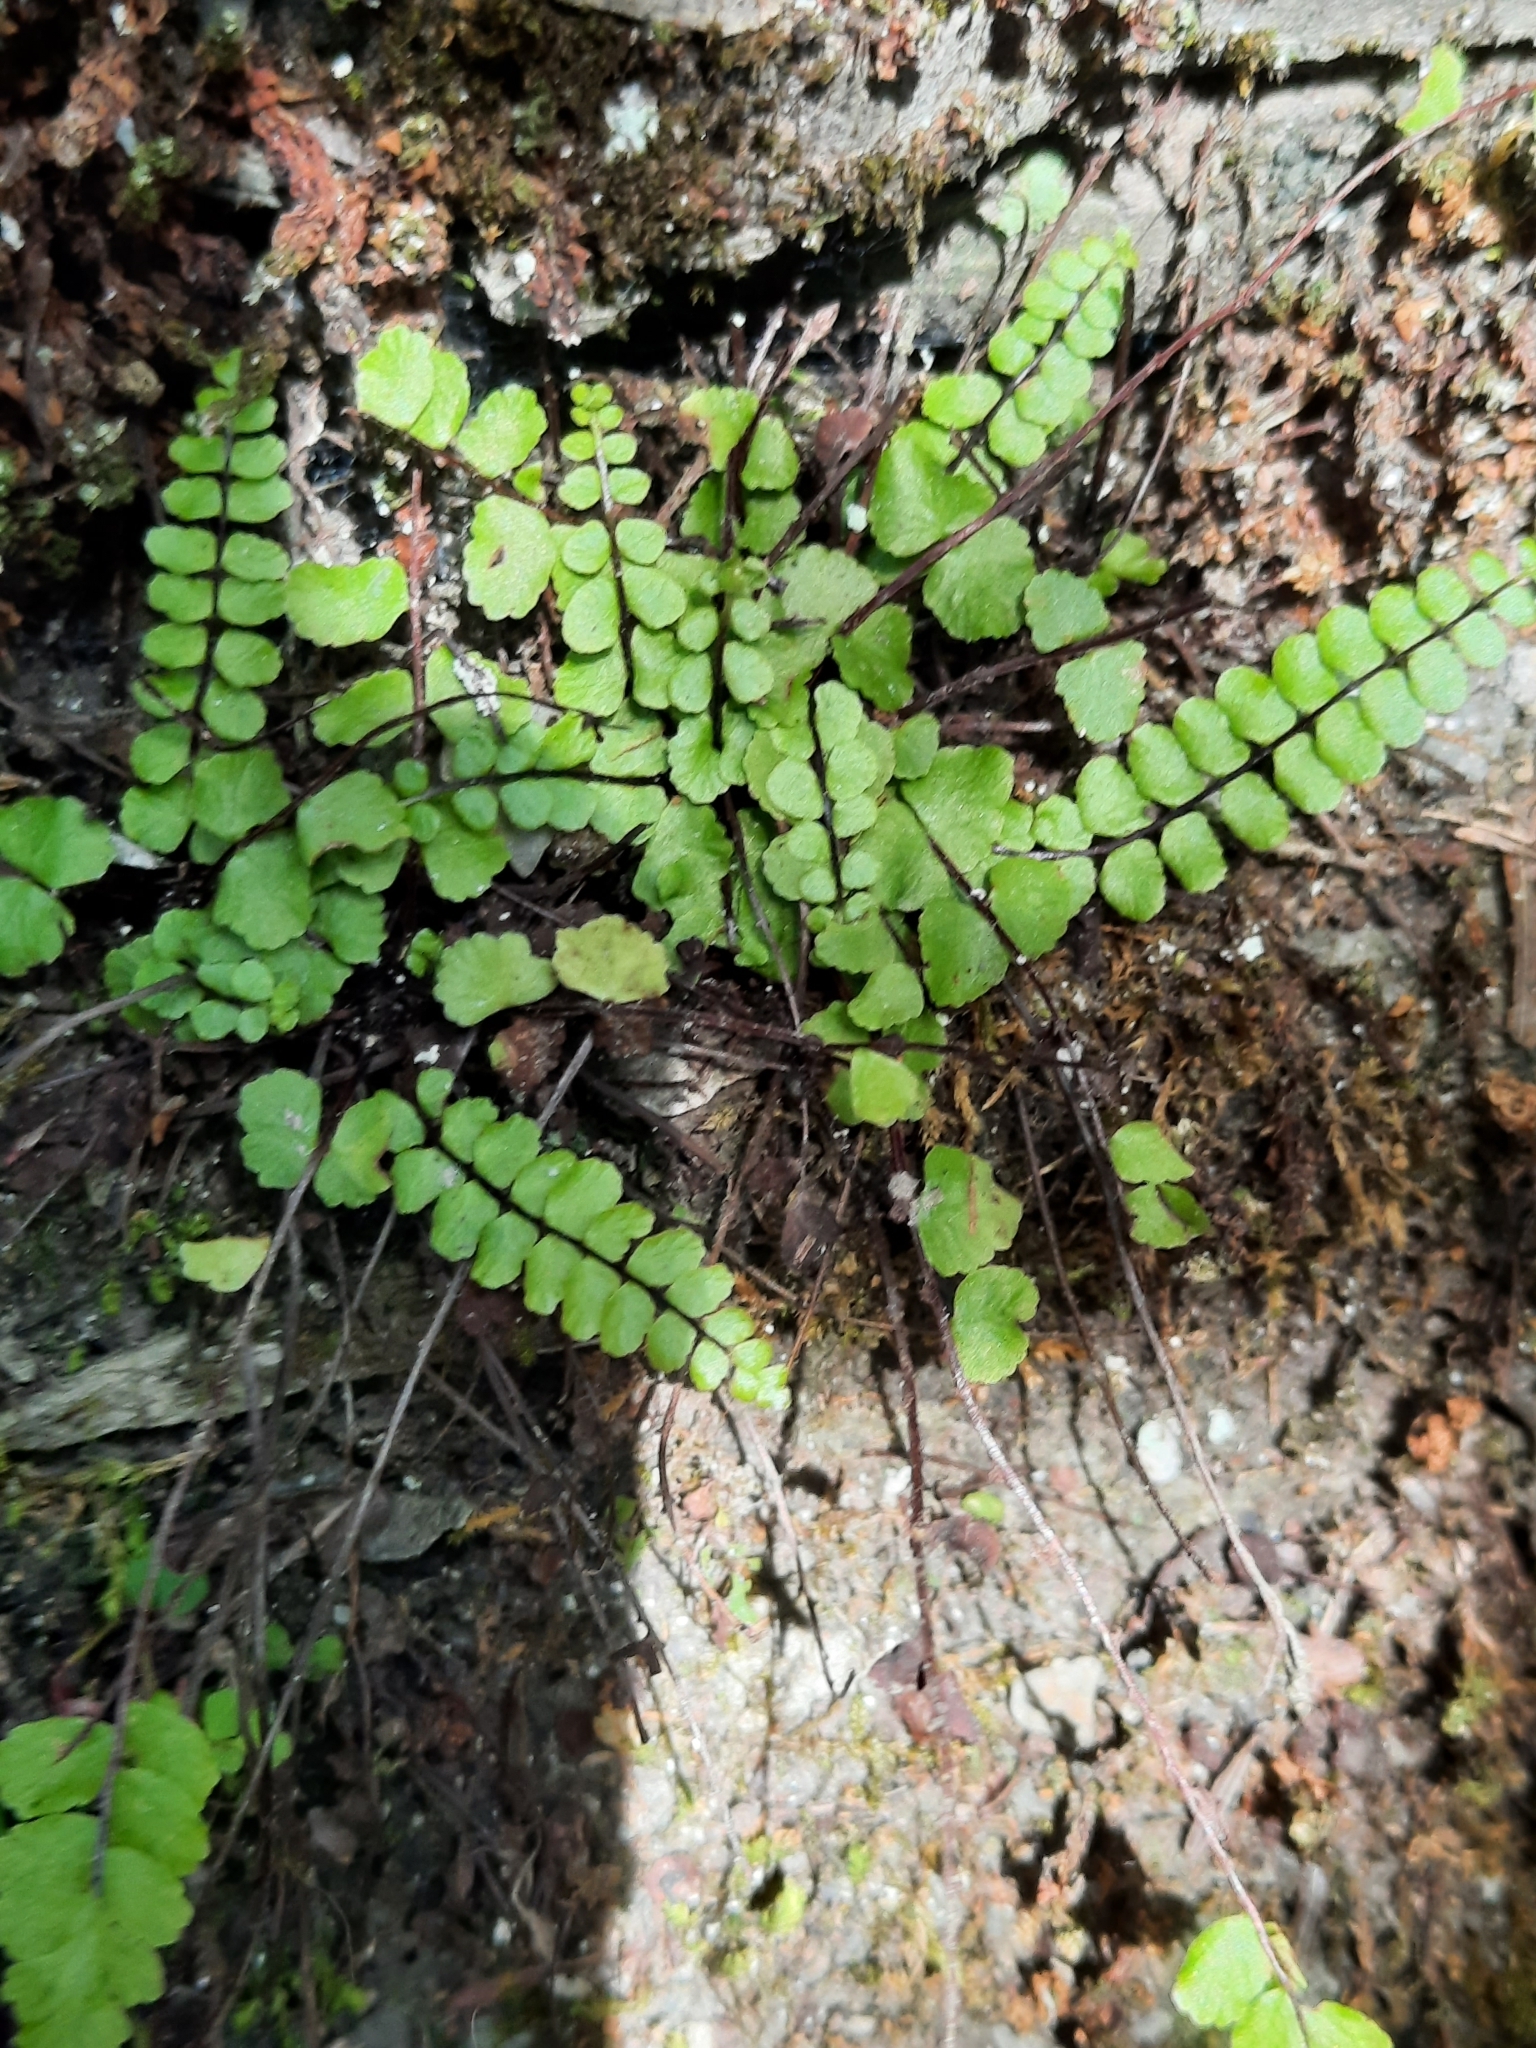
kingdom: Plantae
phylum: Tracheophyta
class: Polypodiopsida
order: Polypodiales
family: Aspleniaceae
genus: Asplenium
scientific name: Asplenium trichomanes
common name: Maidenhair spleenwort
